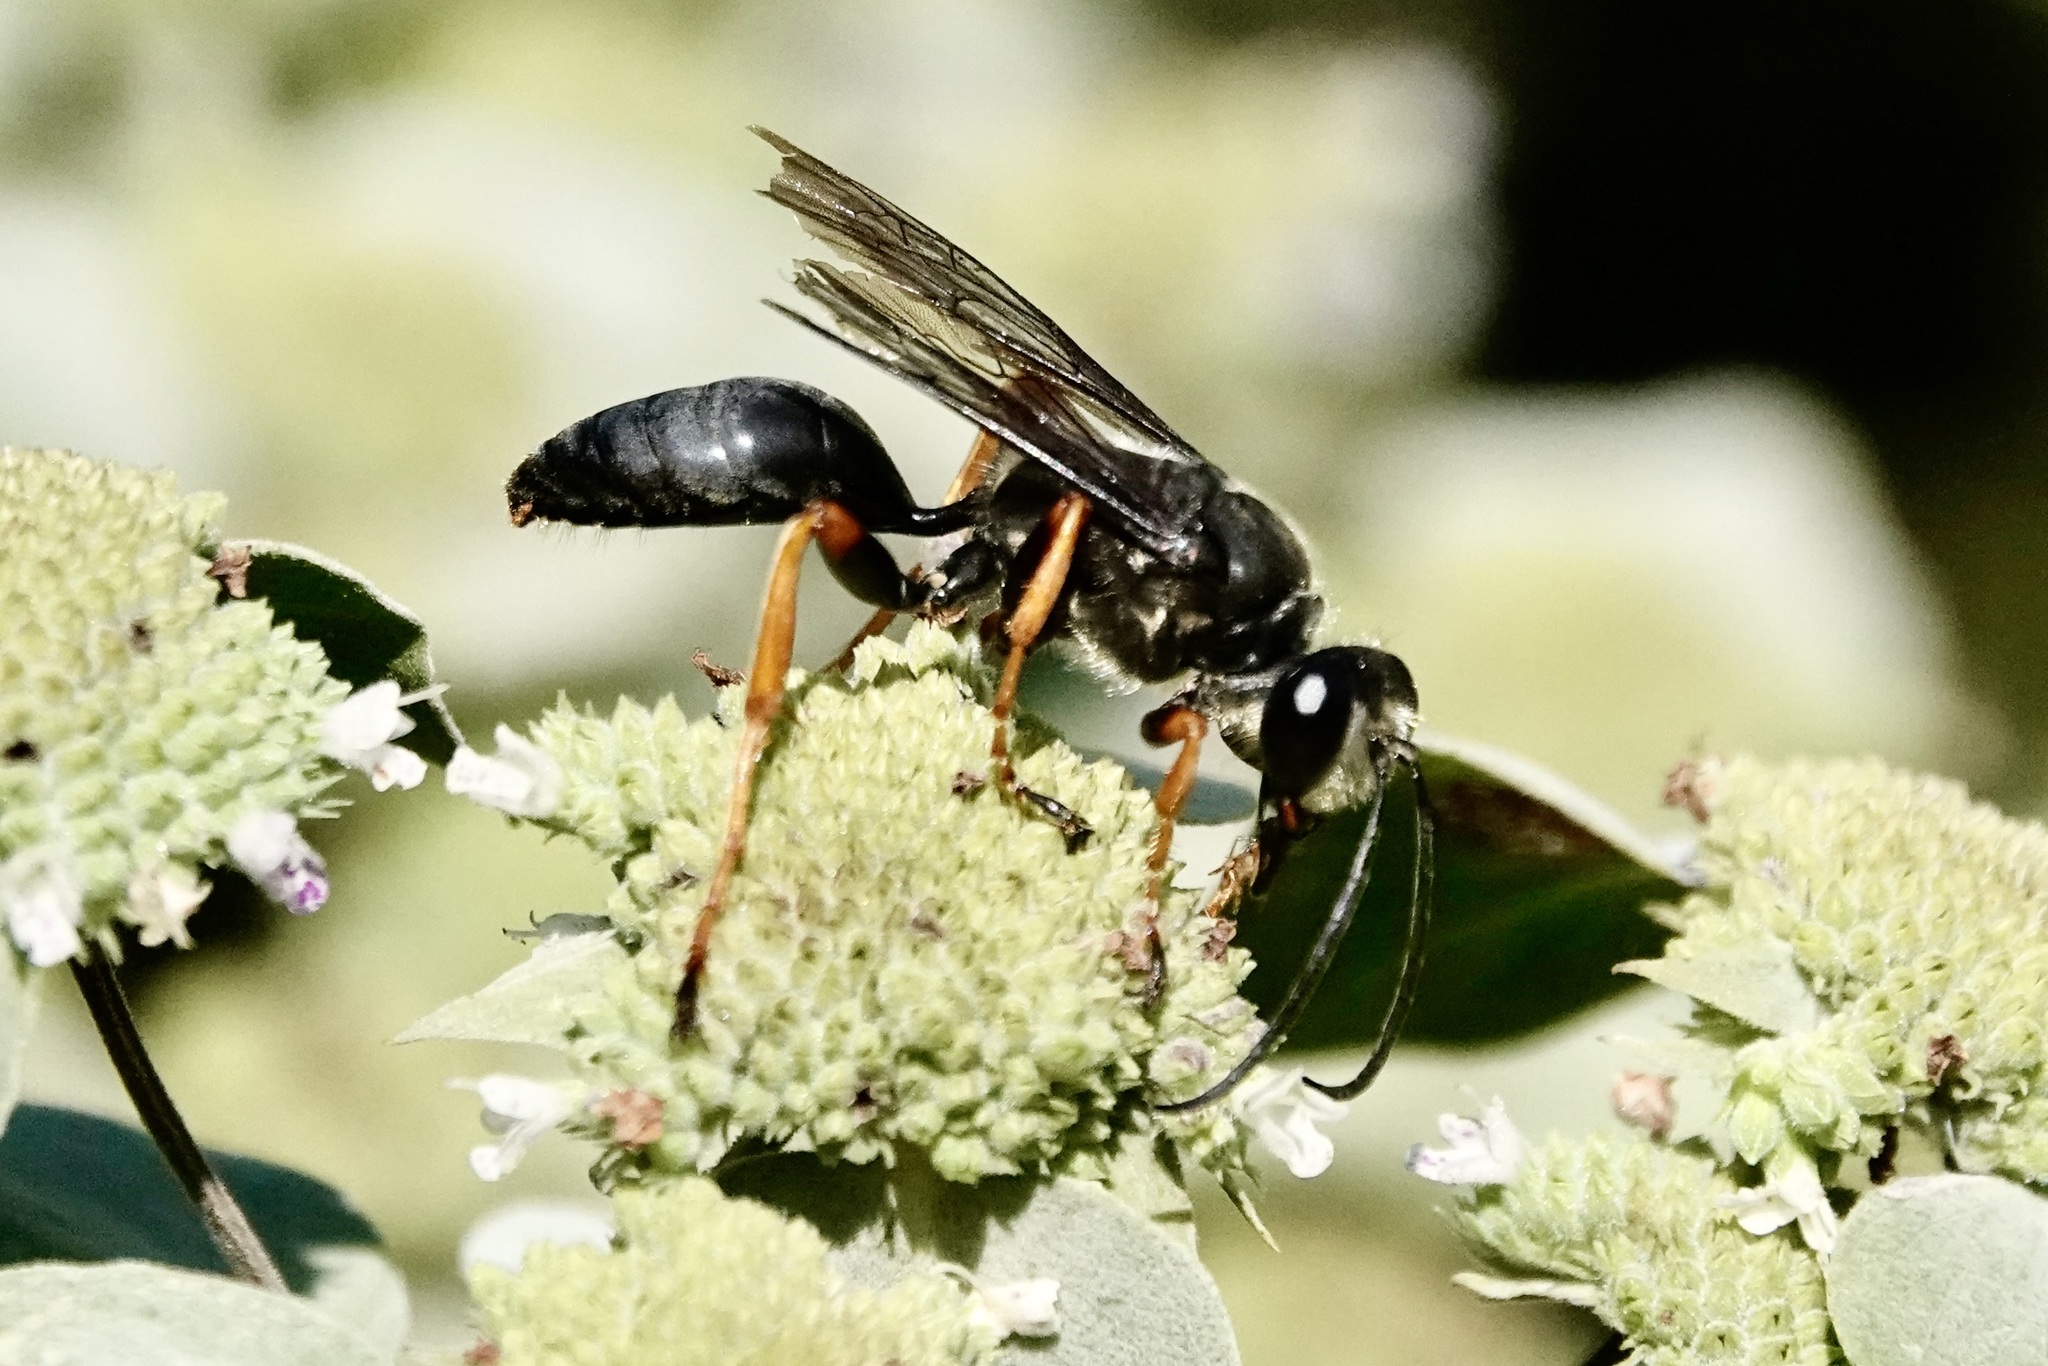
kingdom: Animalia
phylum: Arthropoda
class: Insecta
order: Hymenoptera
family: Sphecidae
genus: Sphex
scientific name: Sphex nudus
